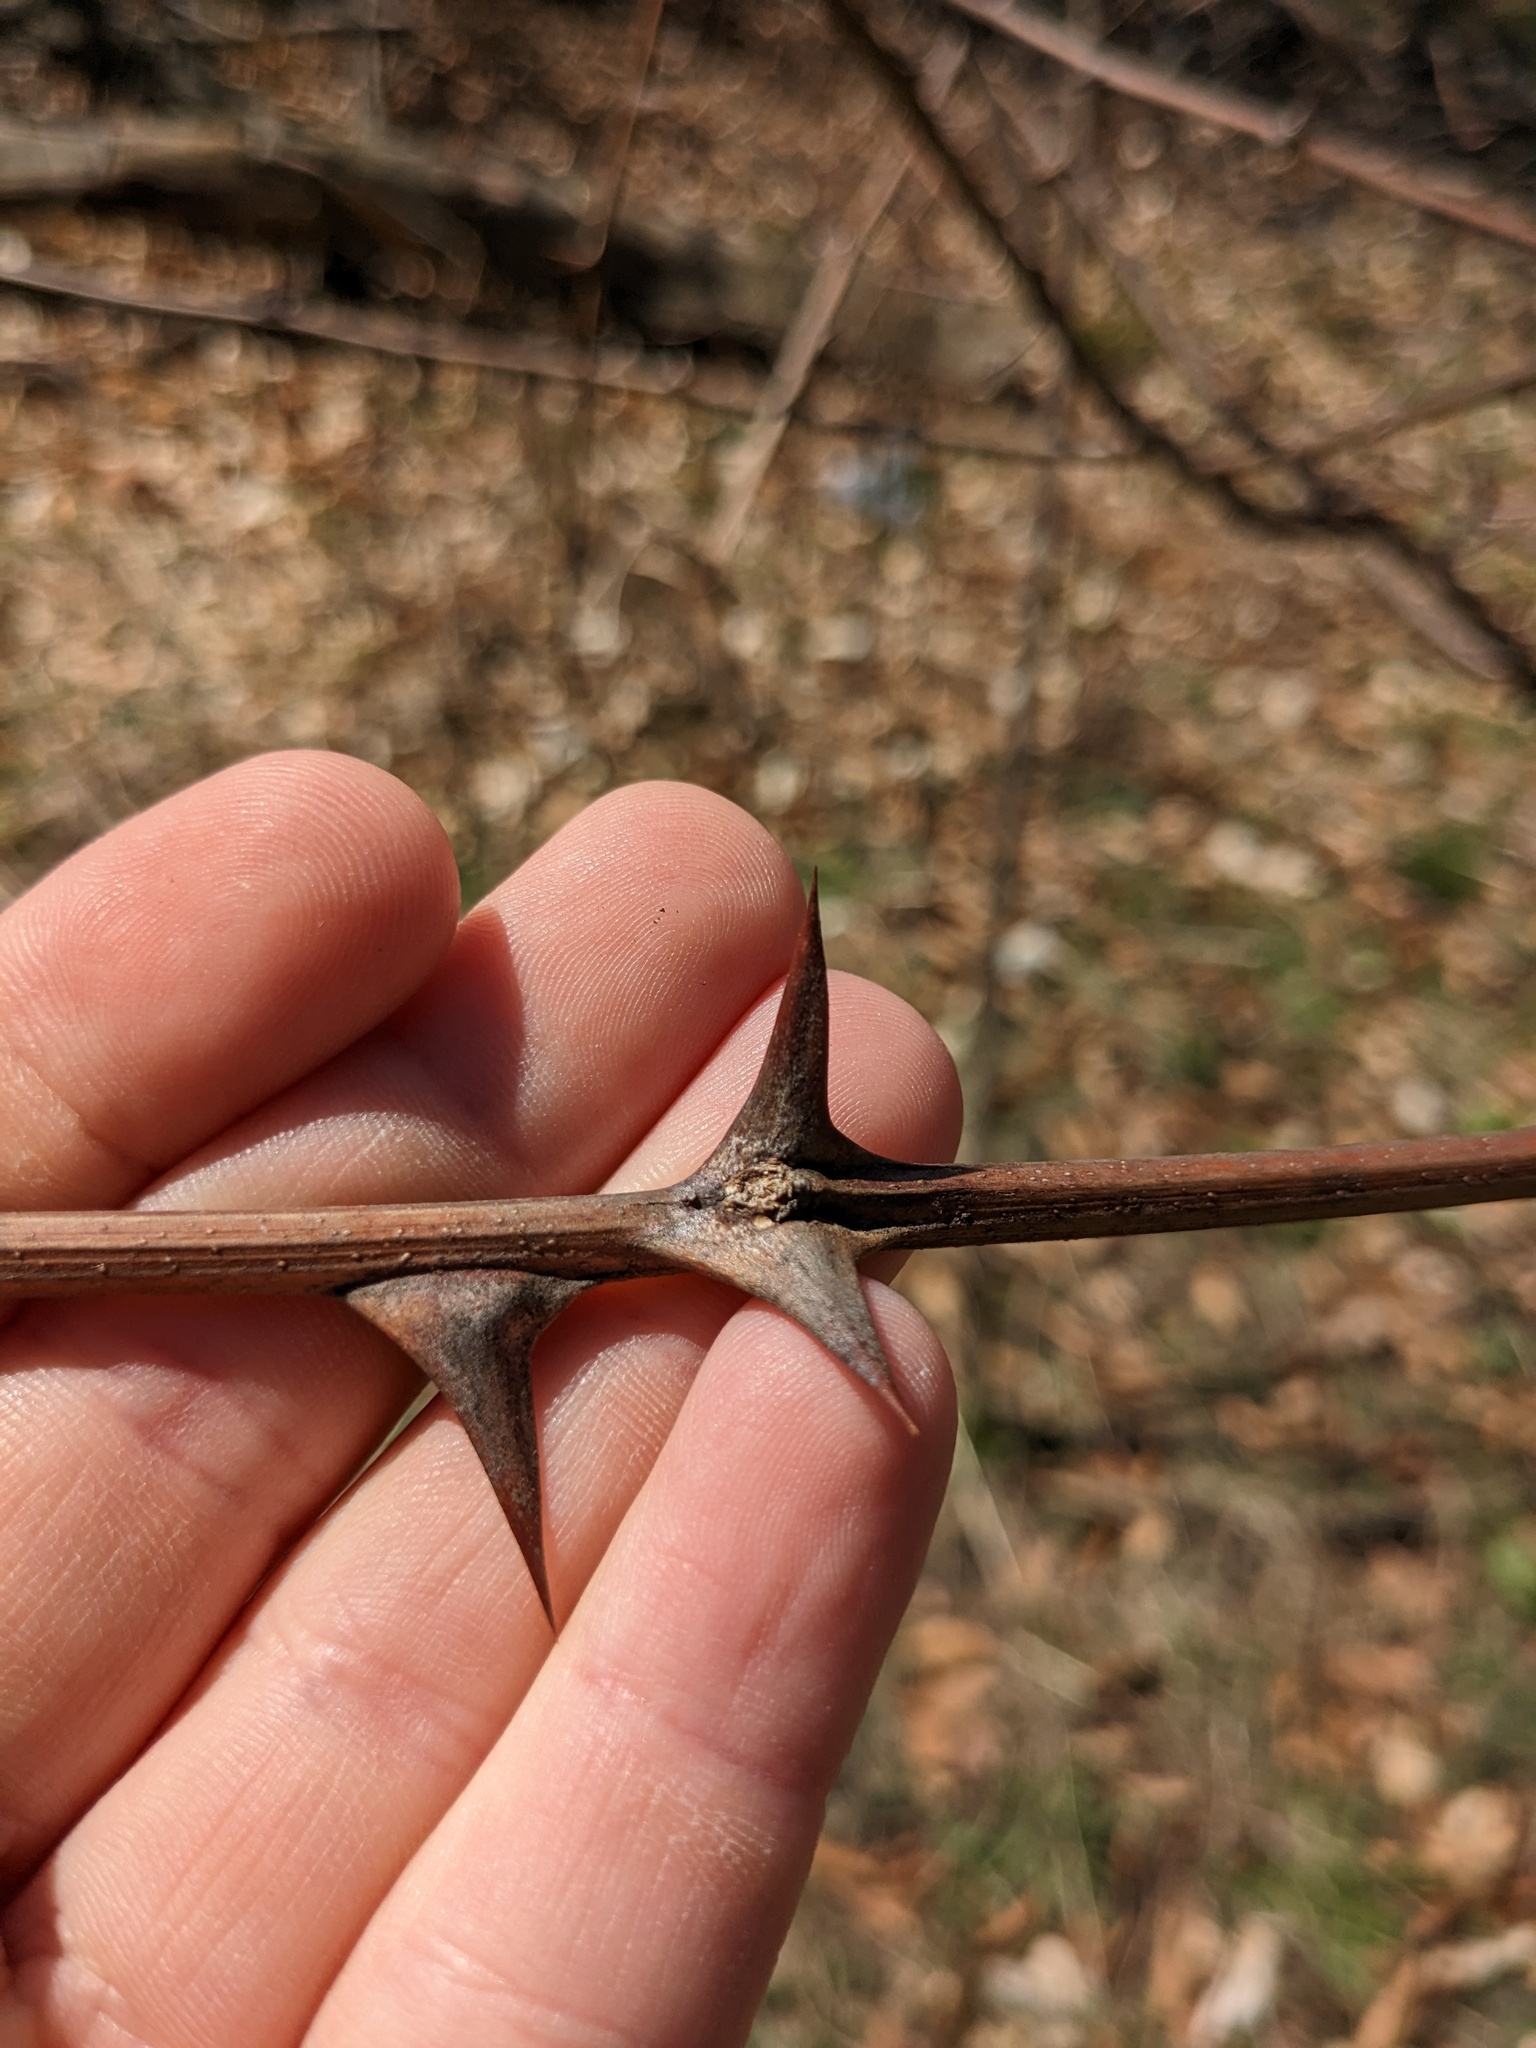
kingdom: Plantae
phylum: Tracheophyta
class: Magnoliopsida
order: Fabales
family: Fabaceae
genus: Robinia
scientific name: Robinia pseudoacacia
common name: Black locust
